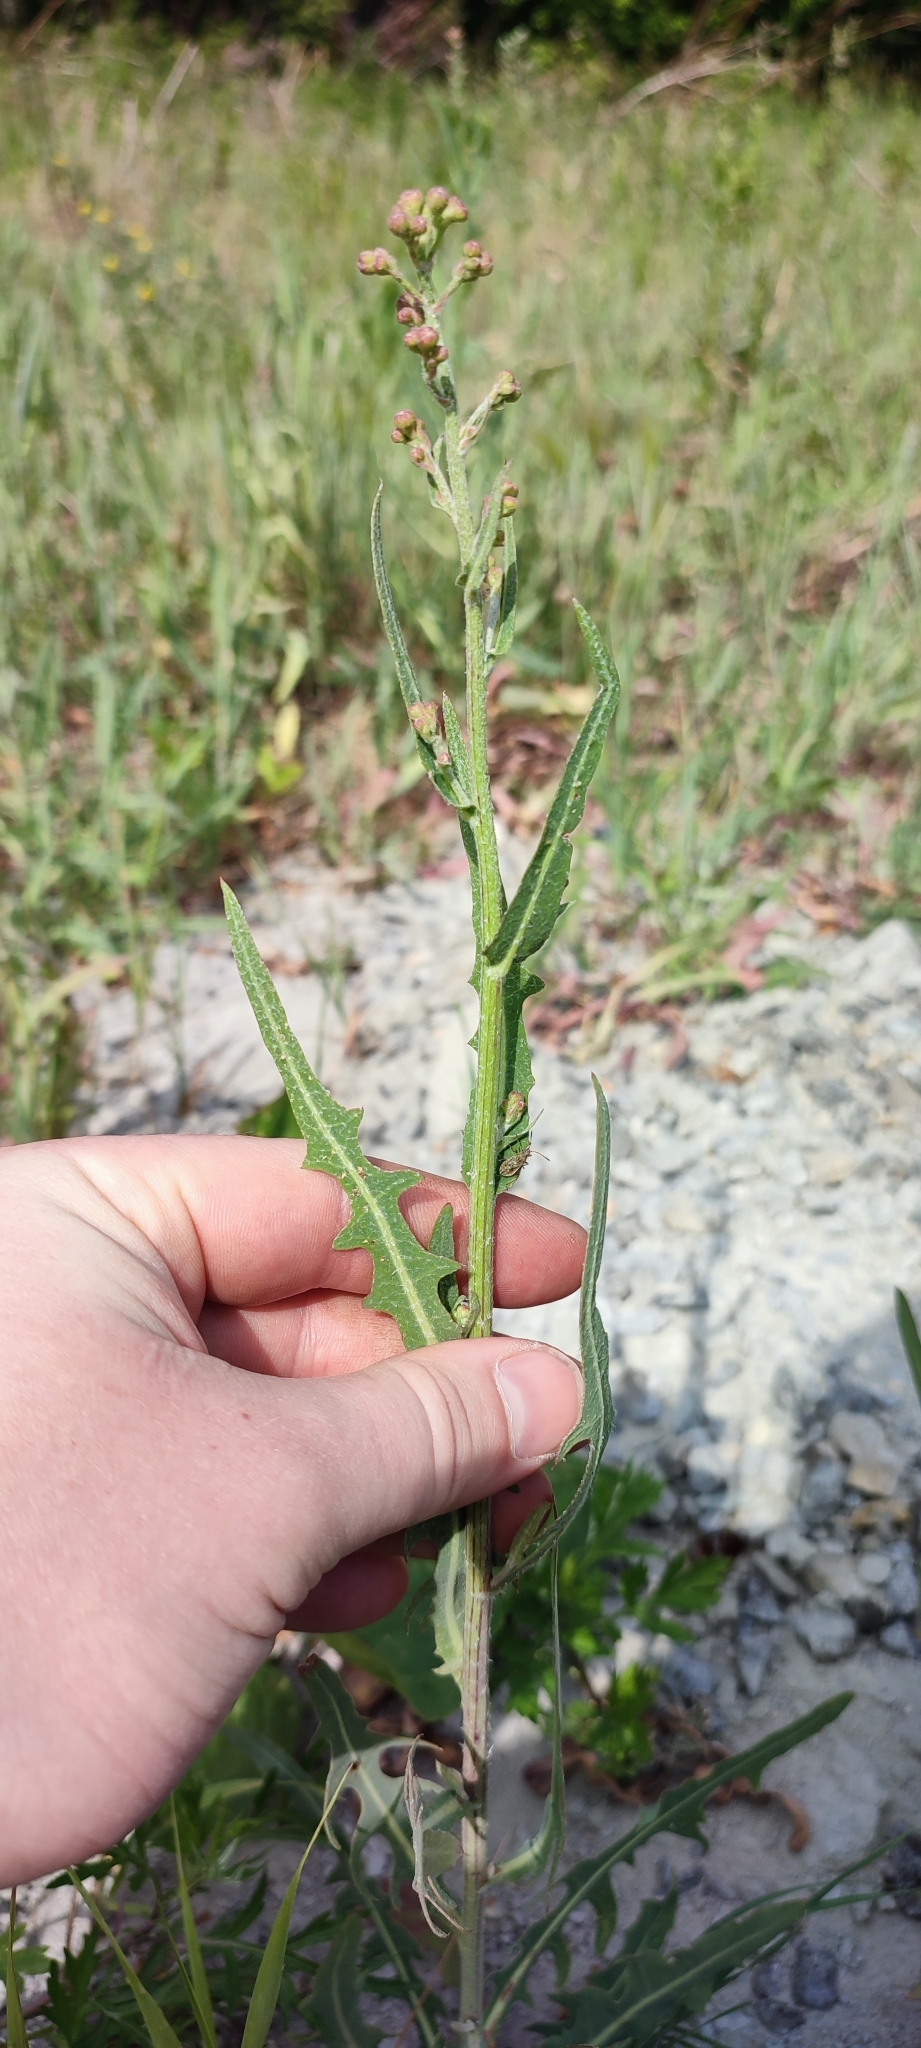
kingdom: Plantae
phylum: Tracheophyta
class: Magnoliopsida
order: Asterales
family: Asteraceae
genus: Lactuca
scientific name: Lactuca tatarica
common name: Blue lettuce
